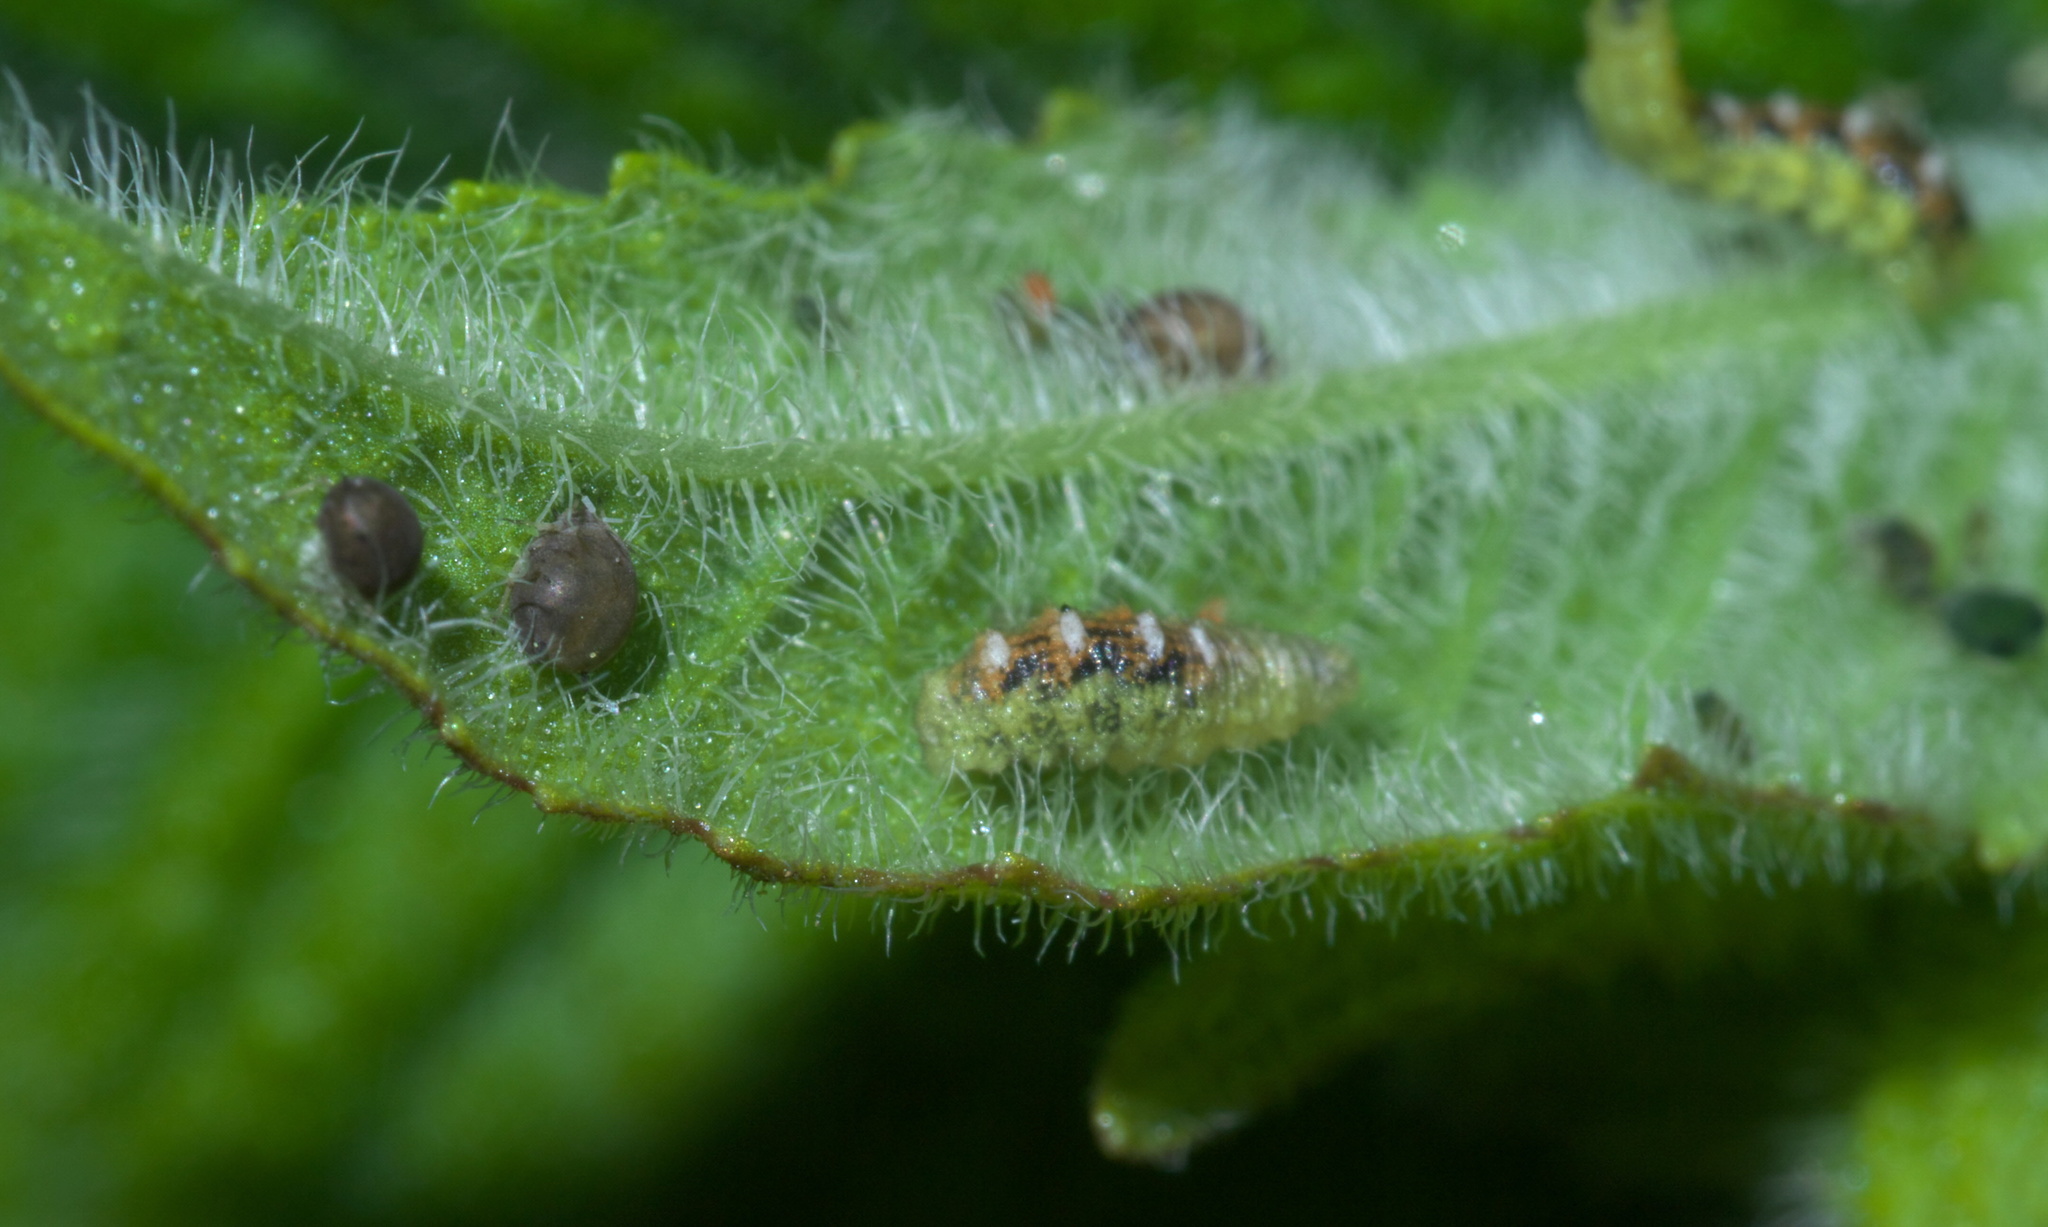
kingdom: Animalia
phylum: Arthropoda
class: Insecta
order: Diptera
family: Syrphidae
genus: Eupeodes
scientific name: Eupeodes pomus
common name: Short-tailed aphideater
